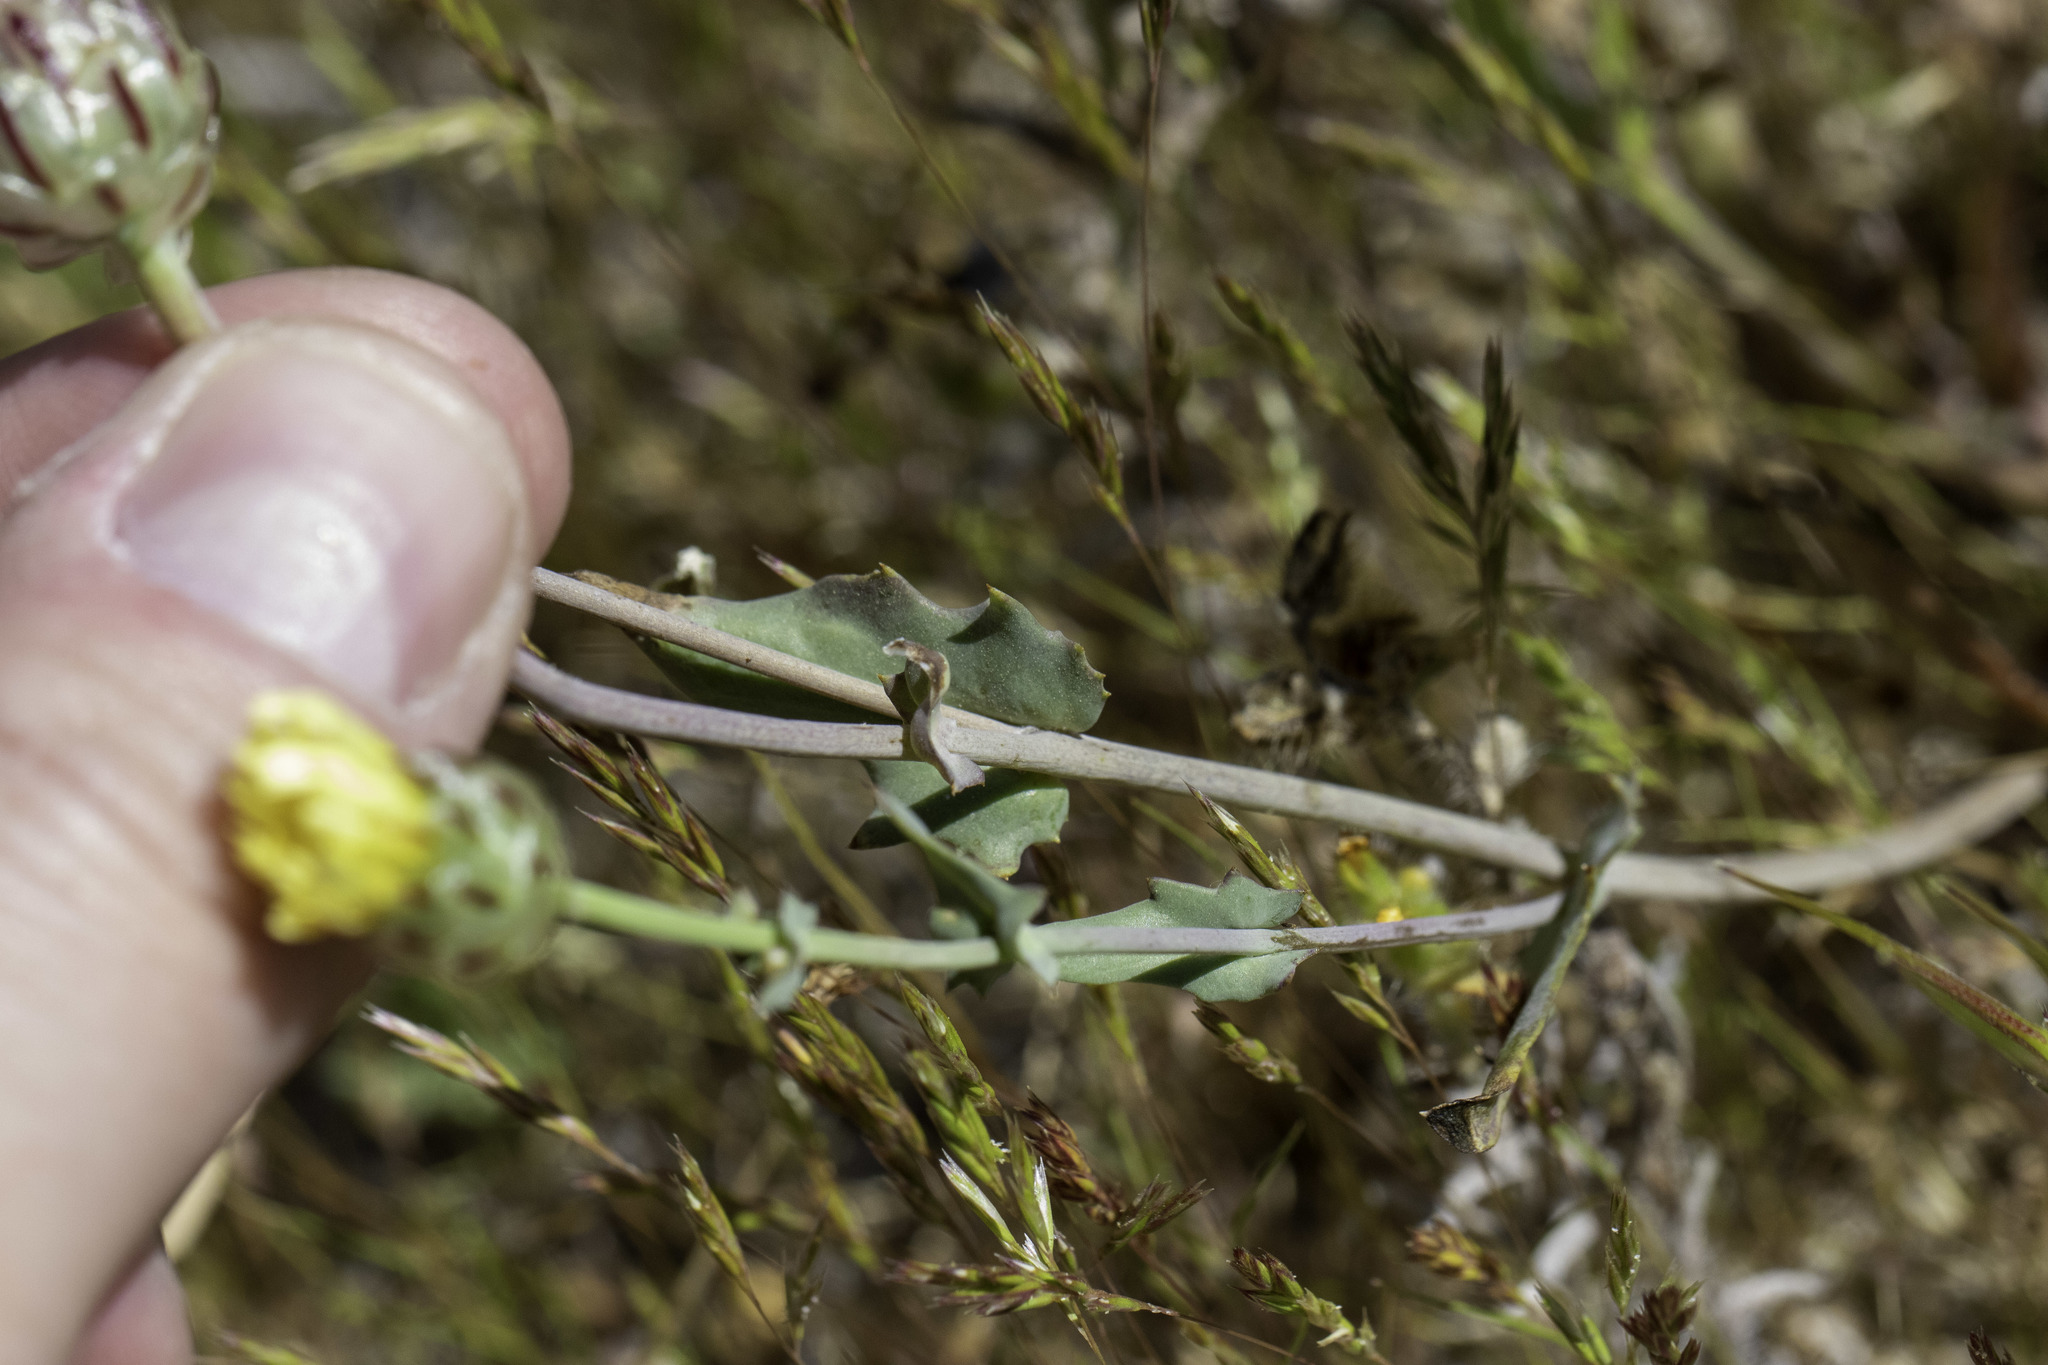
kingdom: Plantae
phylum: Tracheophyta
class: Magnoliopsida
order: Asterales
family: Asteraceae
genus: Malacothrix
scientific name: Malacothrix coulteri
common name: Snake's-head
